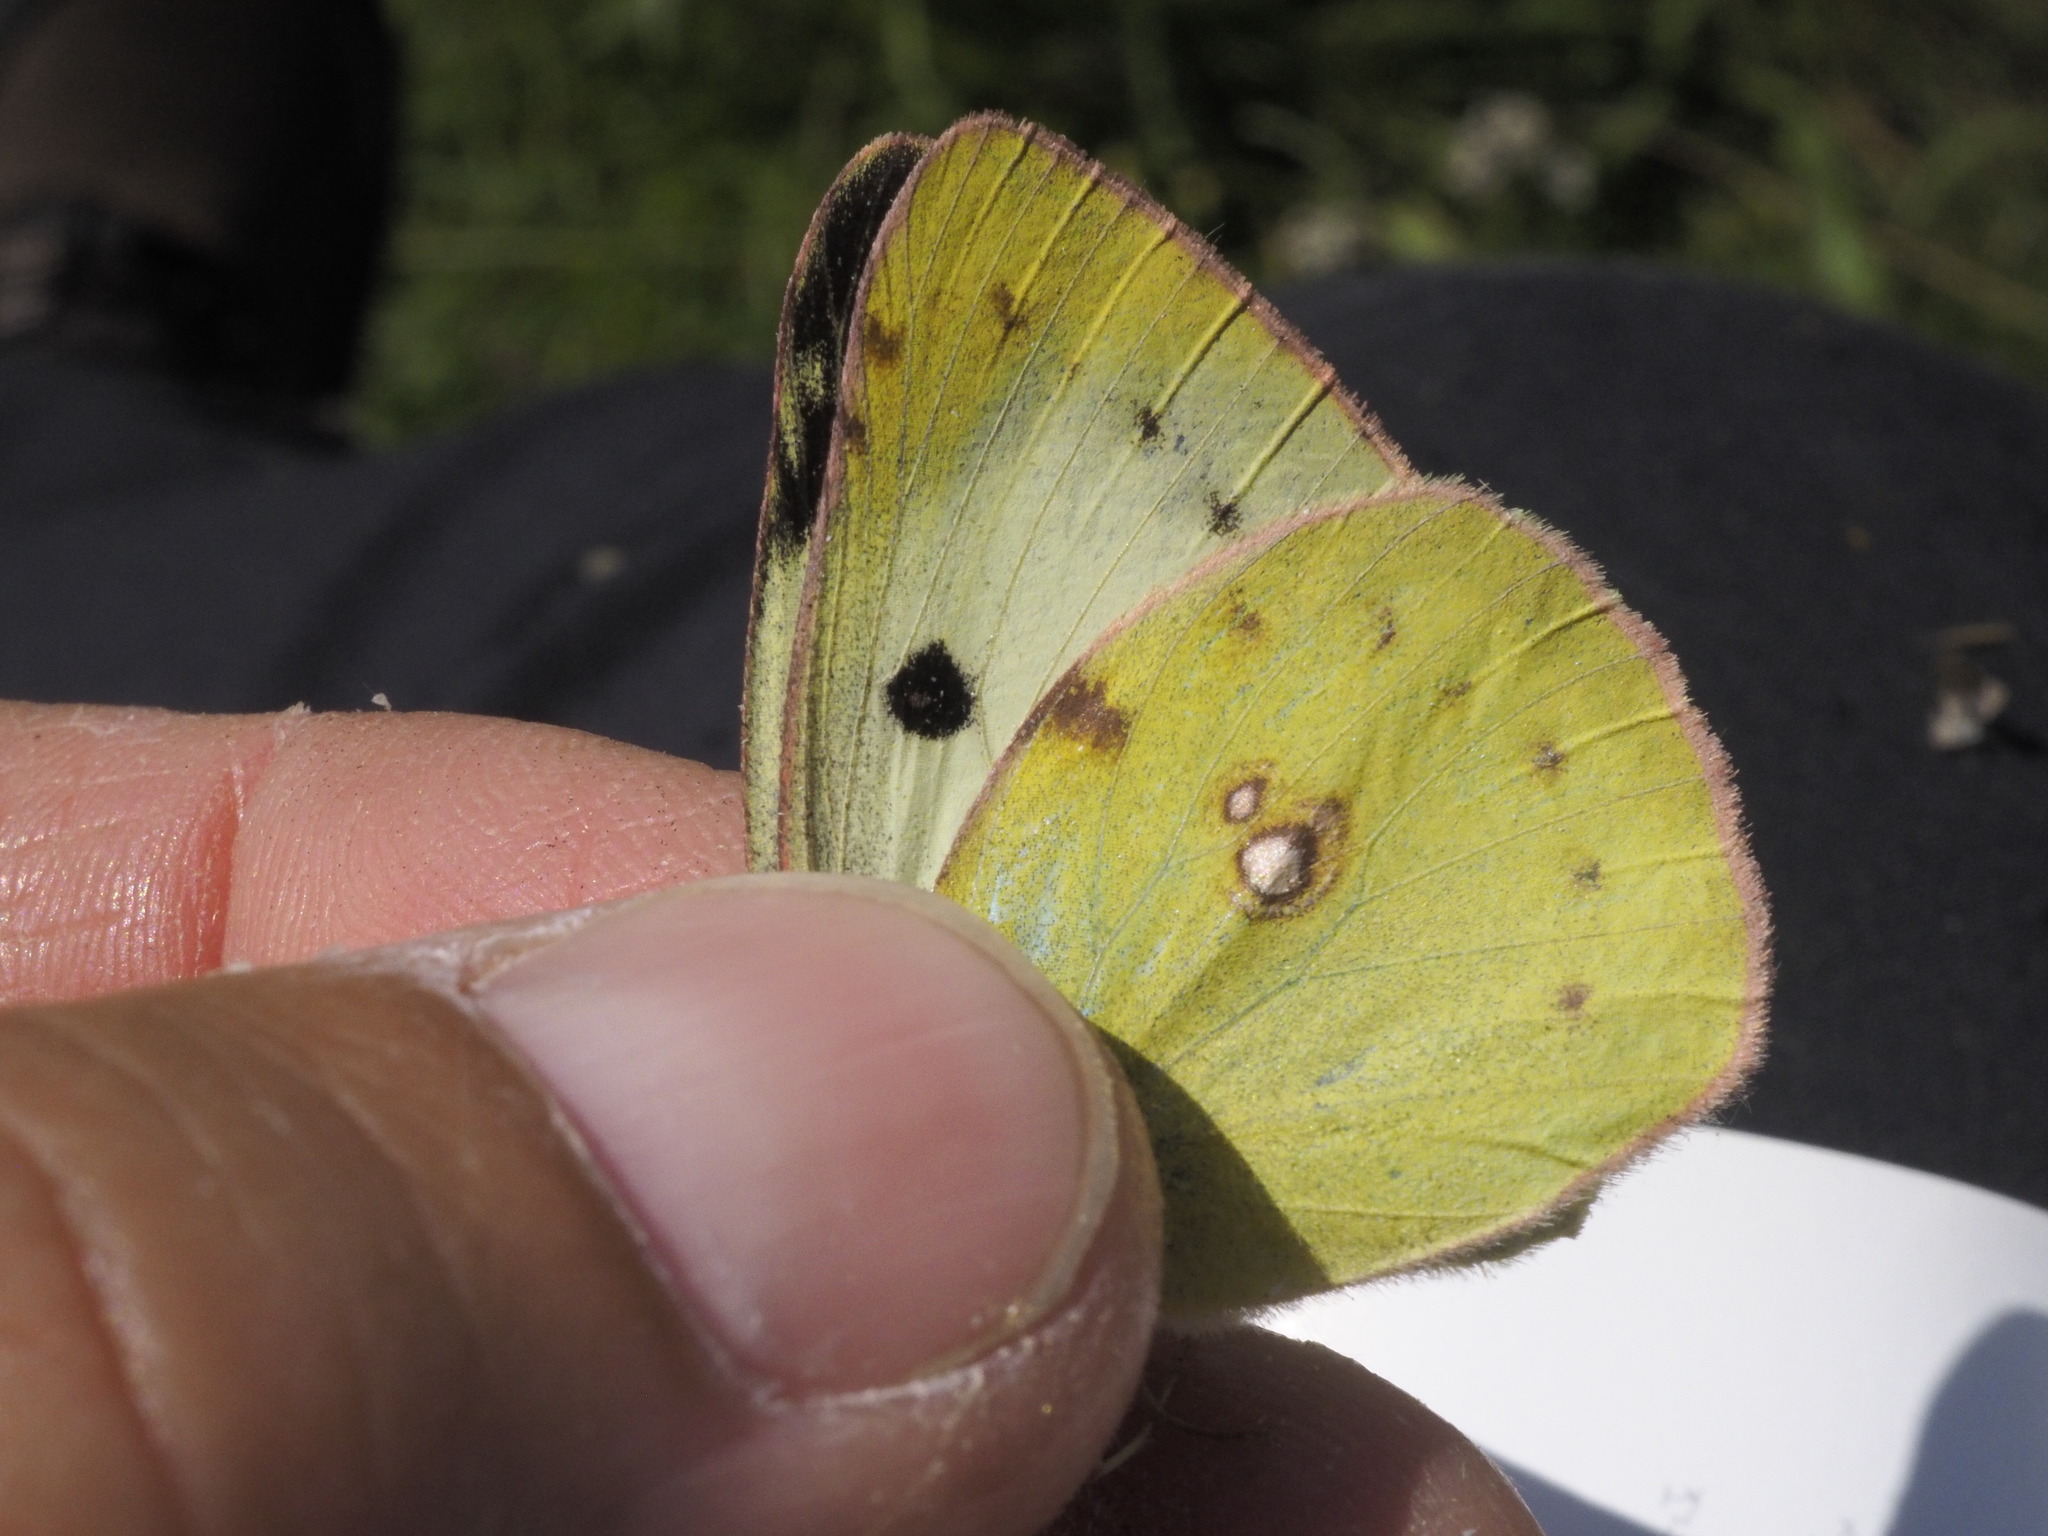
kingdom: Animalia
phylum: Arthropoda
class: Insecta
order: Lepidoptera
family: Pieridae
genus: Colias
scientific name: Colias hyale
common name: Pale clouded yellow
